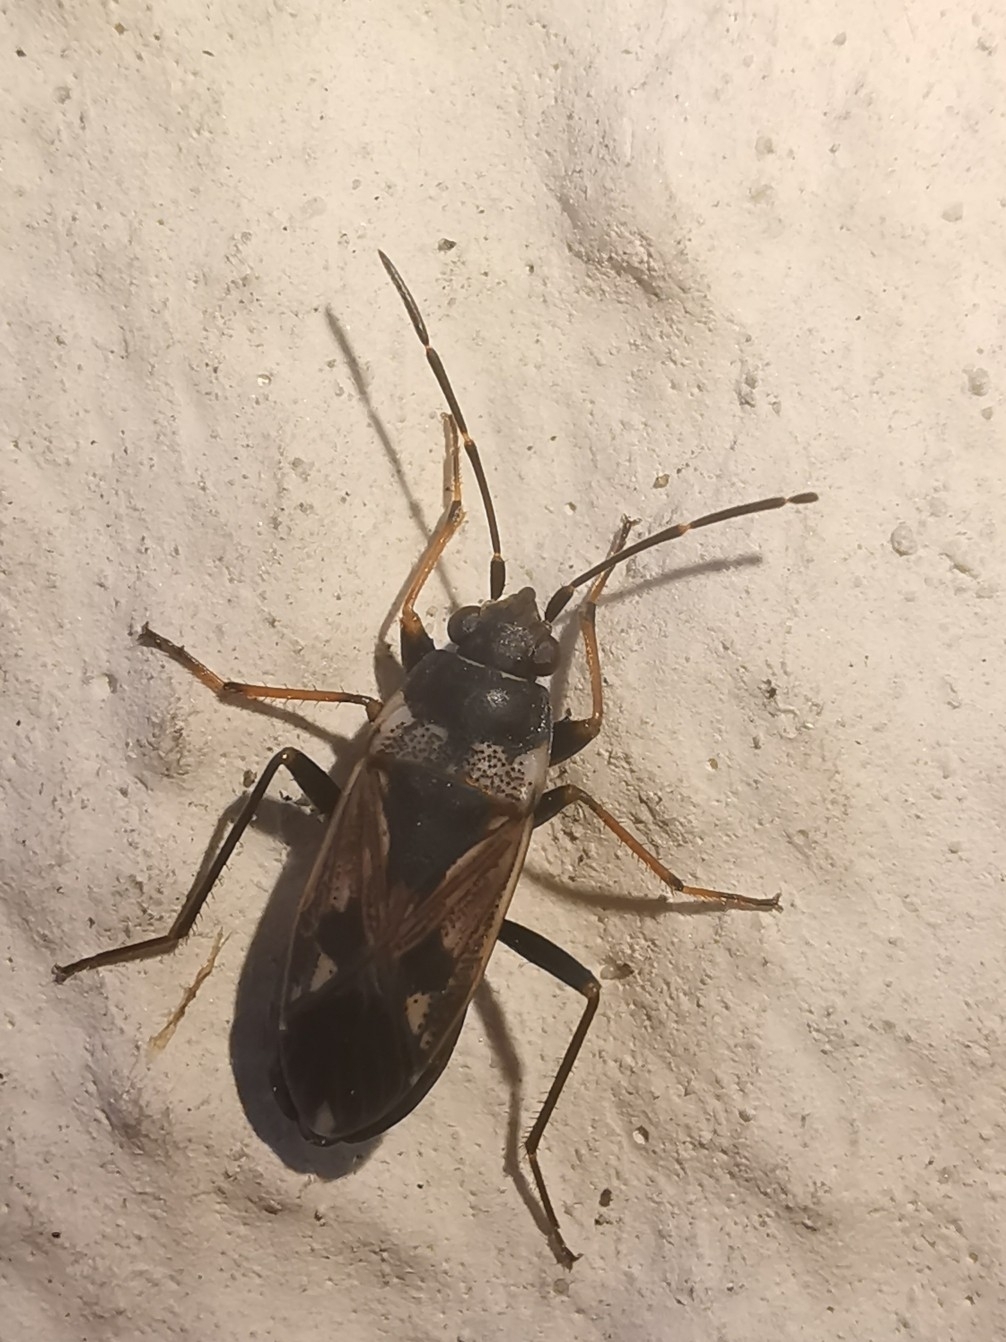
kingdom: Animalia
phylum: Arthropoda
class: Insecta
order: Hemiptera
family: Rhyparochromidae
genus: Rhyparochromus
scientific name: Rhyparochromus vulgaris
